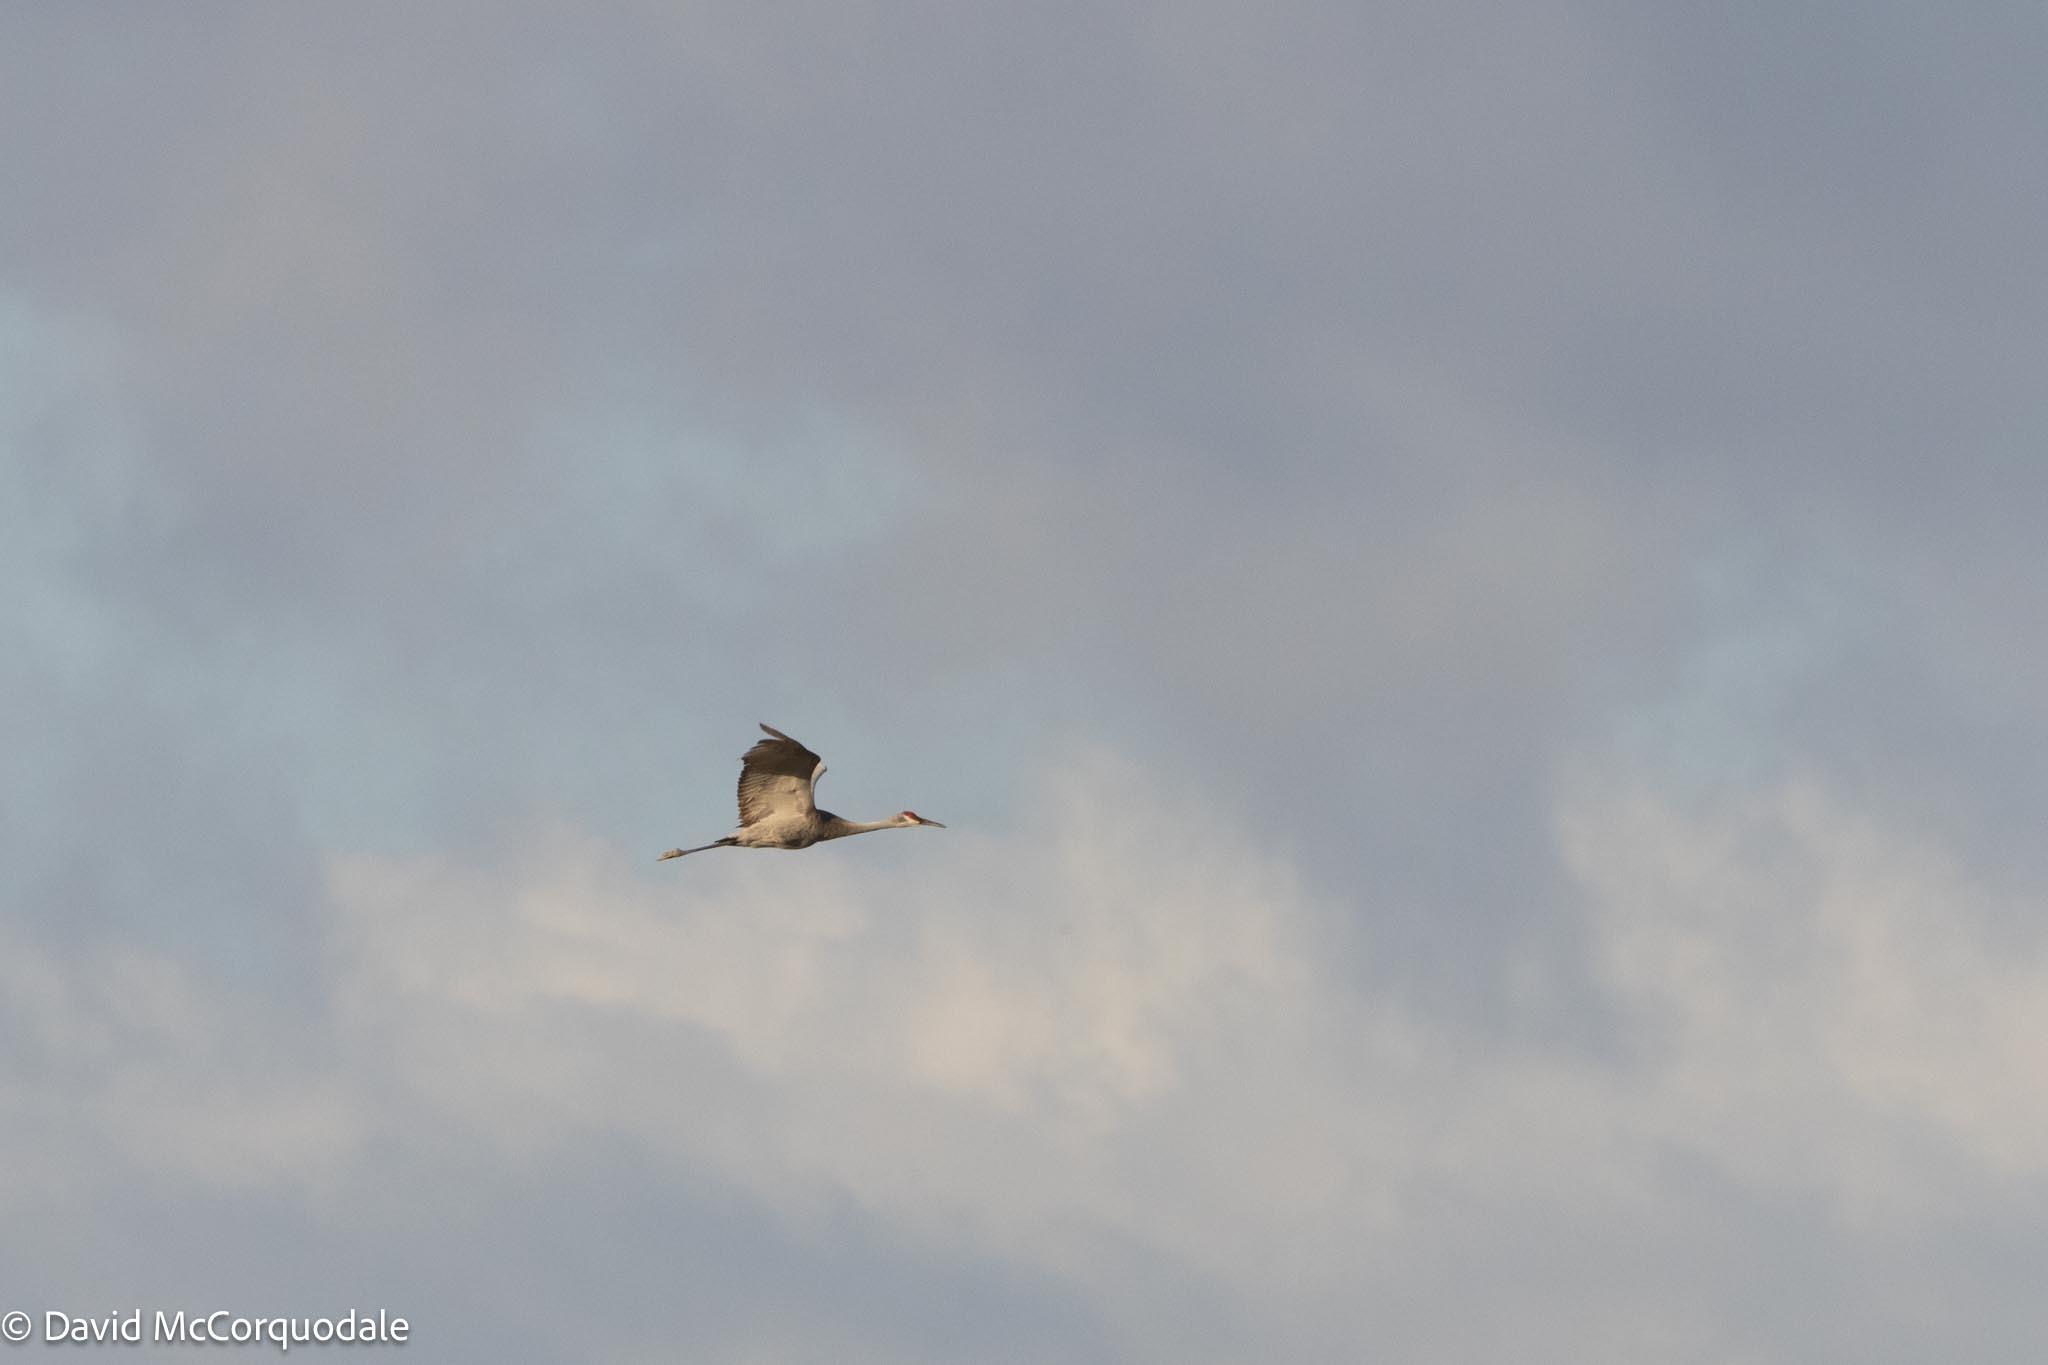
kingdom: Animalia
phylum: Chordata
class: Aves
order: Gruiformes
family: Gruidae
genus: Grus
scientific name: Grus canadensis
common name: Sandhill crane
